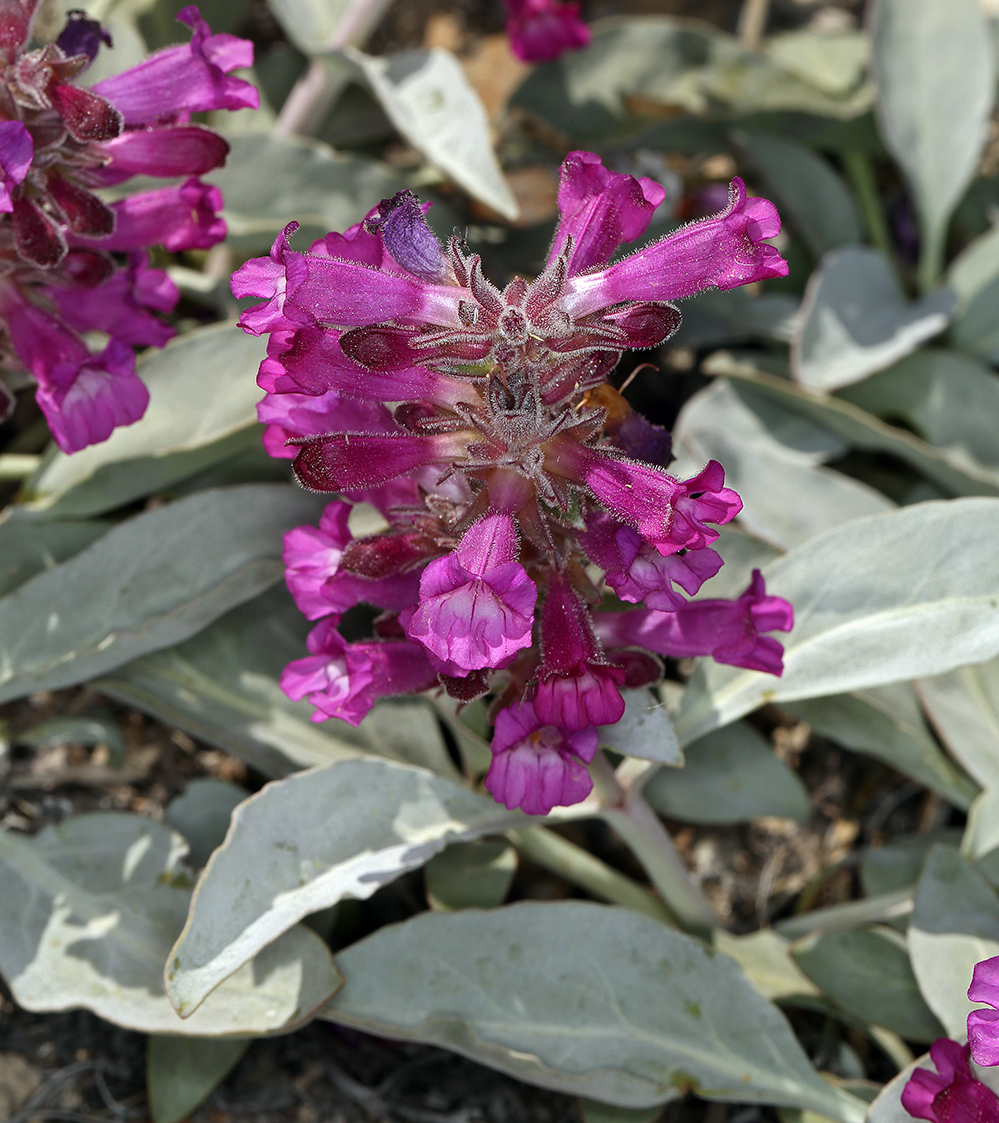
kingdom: Plantae
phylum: Tracheophyta
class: Magnoliopsida
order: Lamiales
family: Plantaginaceae
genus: Penstemon
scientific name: Penstemon monoensis
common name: Mono penstemon
